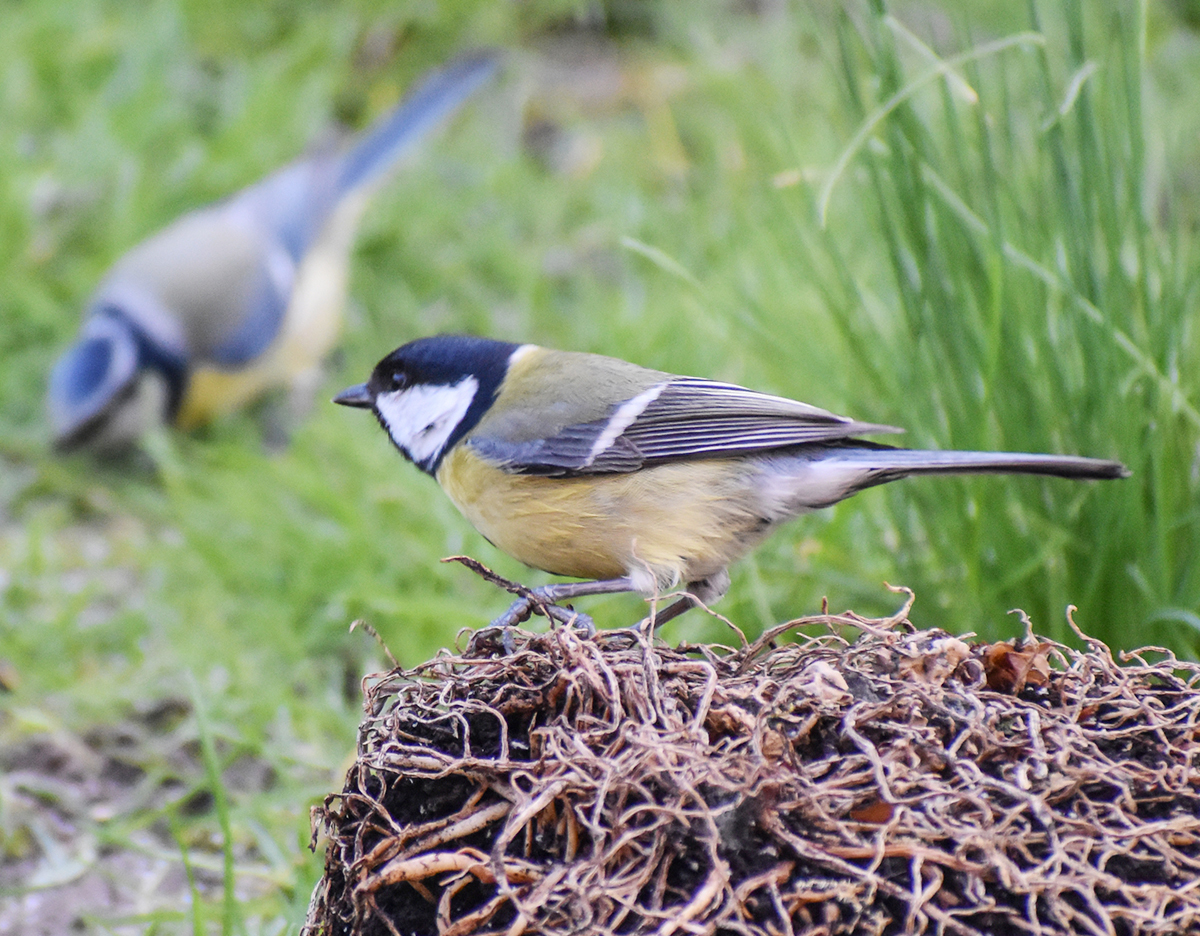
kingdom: Animalia
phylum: Chordata
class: Aves
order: Passeriformes
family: Paridae
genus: Parus
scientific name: Parus major
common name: Great tit
